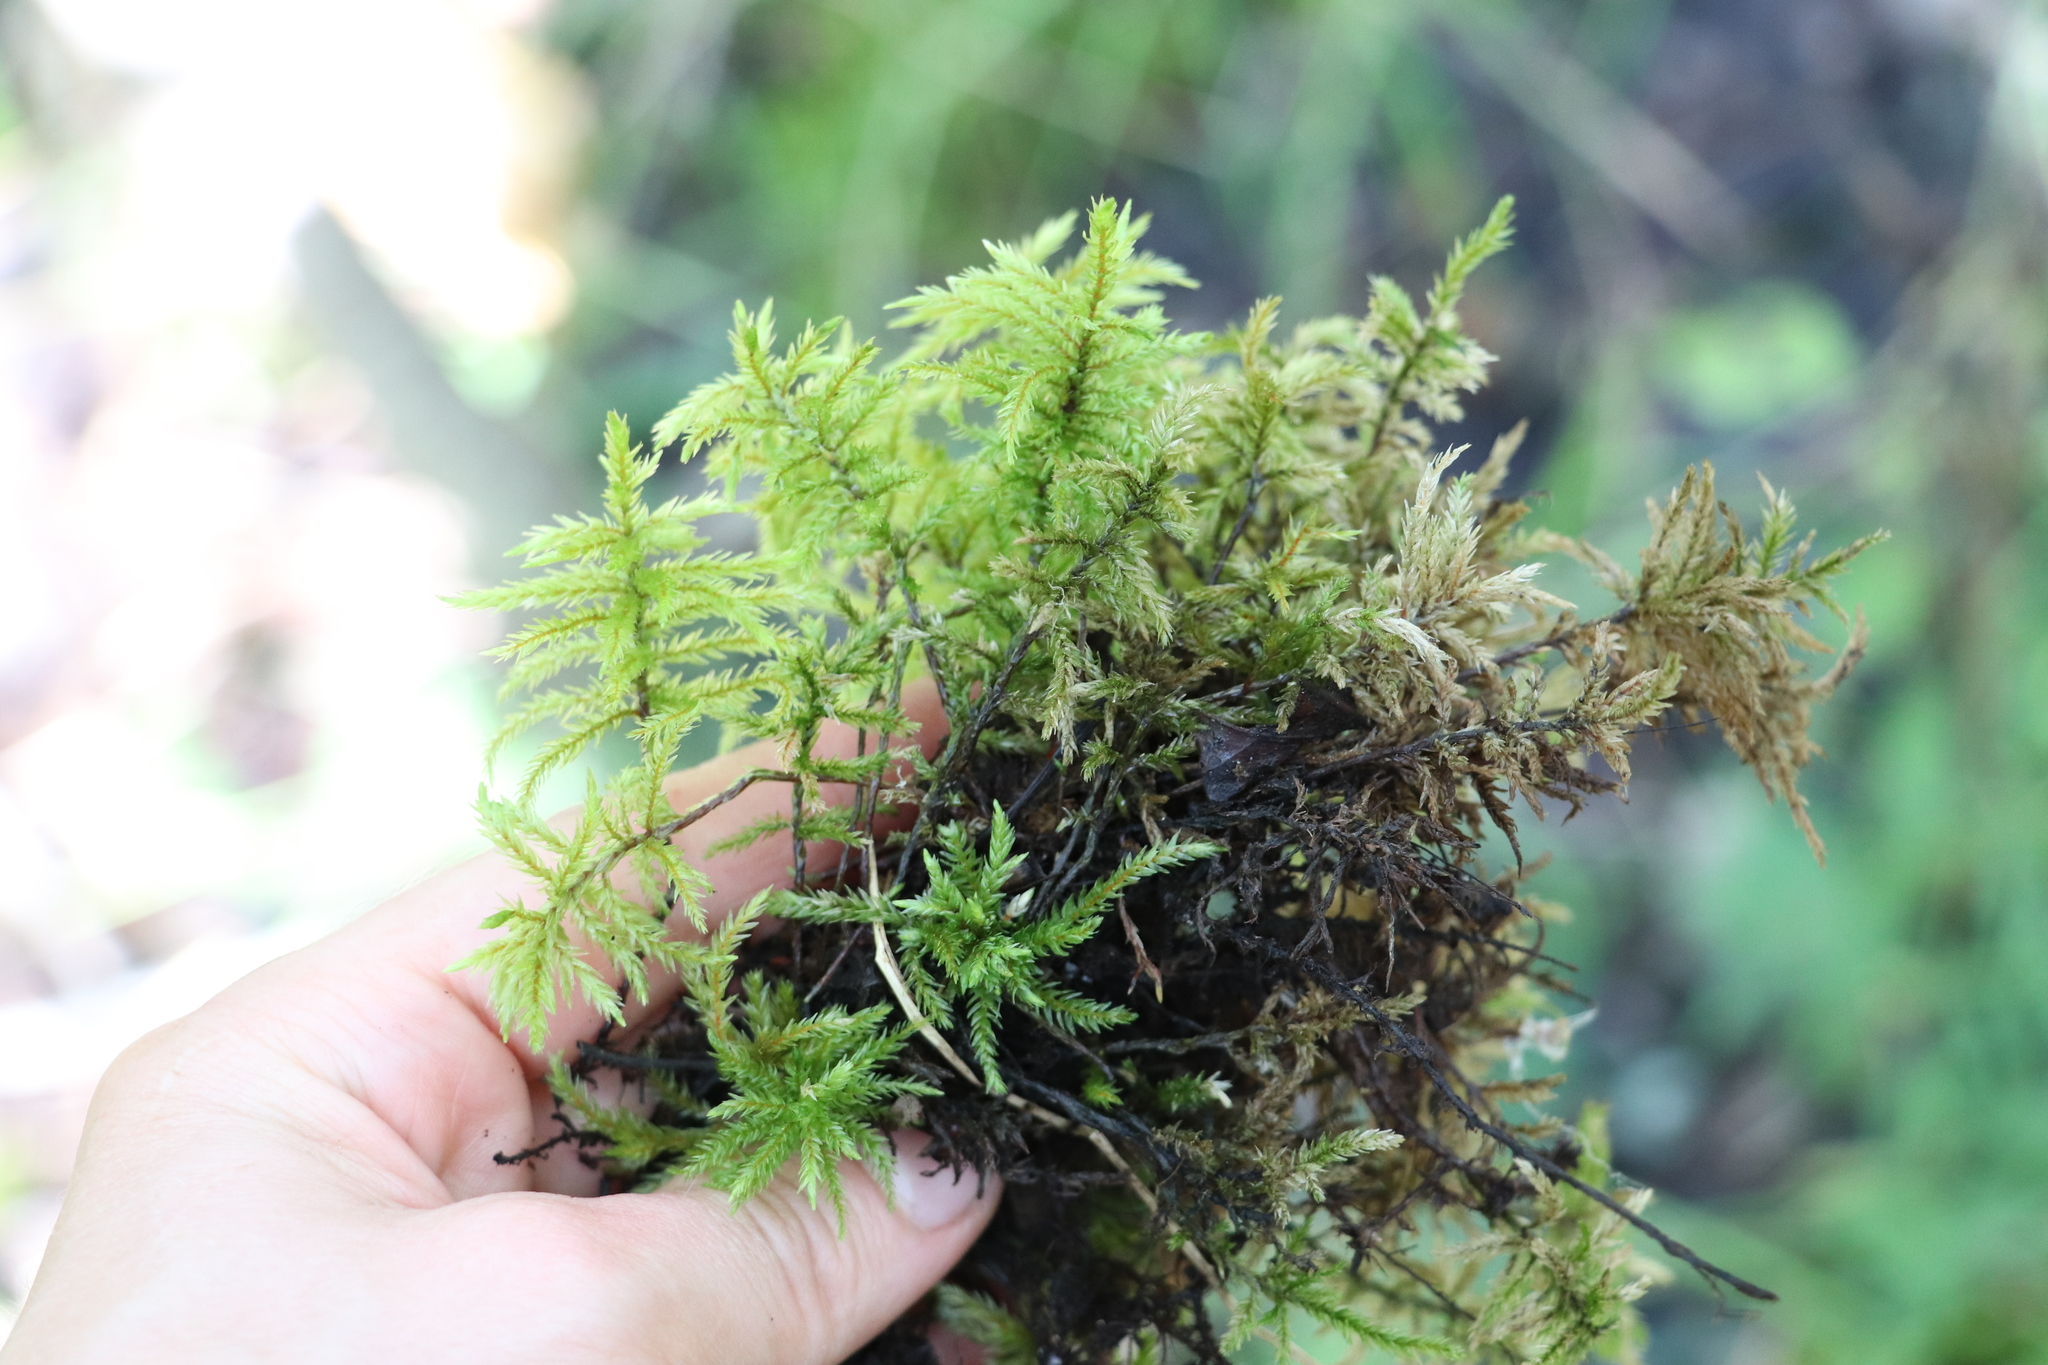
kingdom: Plantae
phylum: Bryophyta
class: Bryopsida
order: Hypnales
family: Climaciaceae
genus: Climacium
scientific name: Climacium dendroides
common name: Northern tree moss
